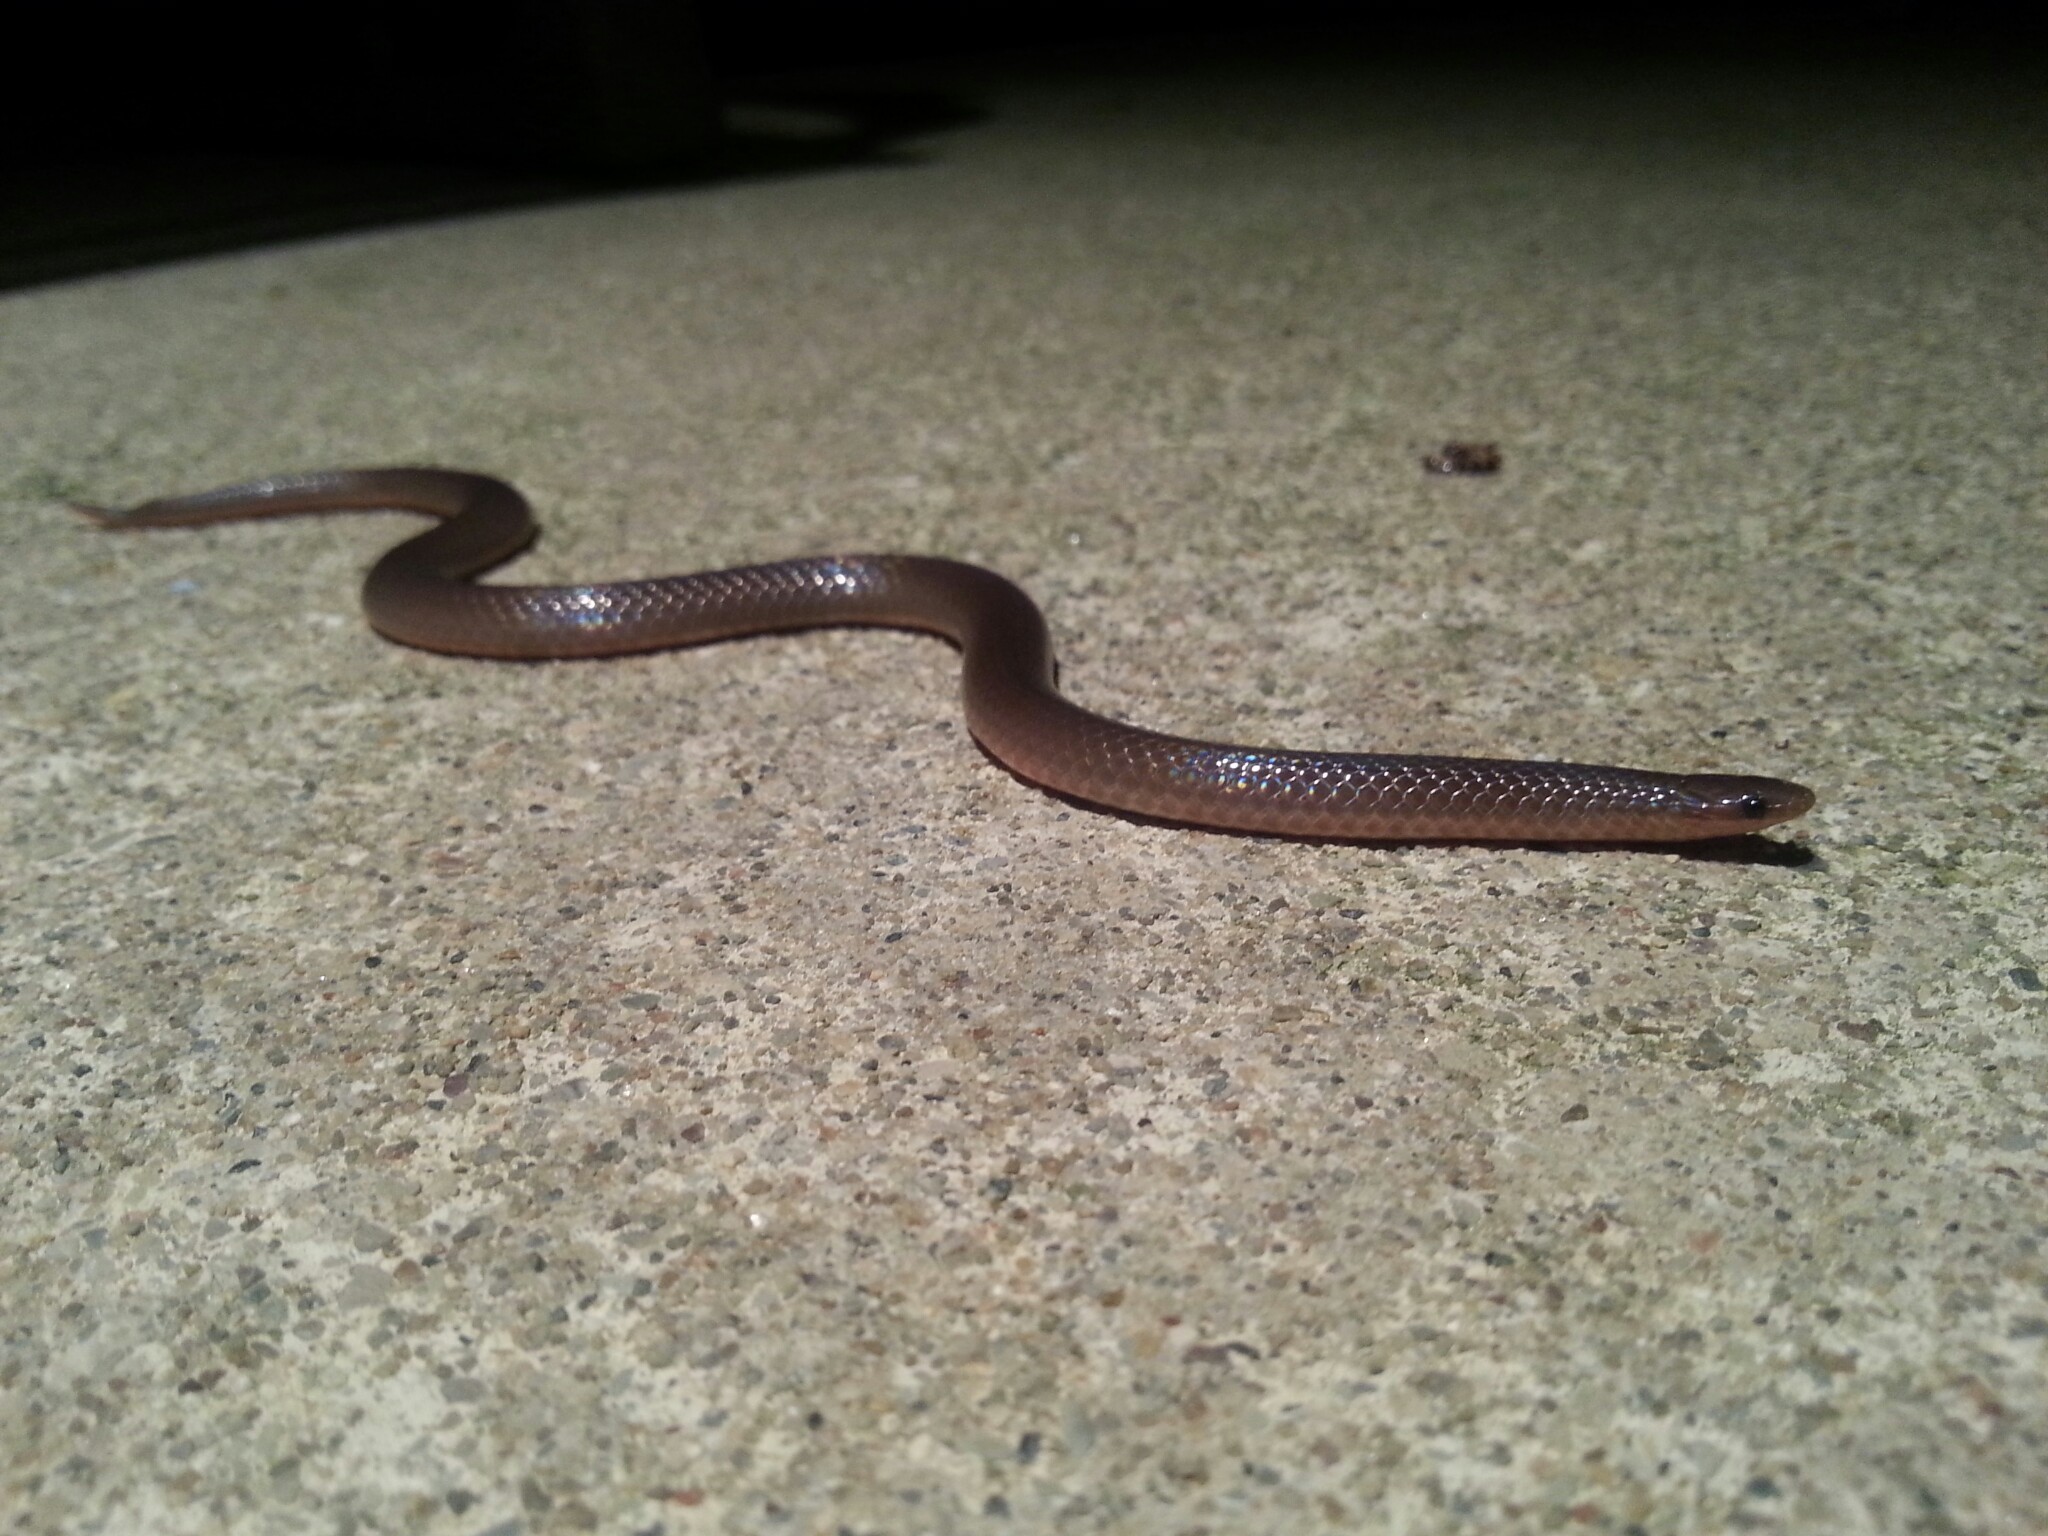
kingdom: Animalia
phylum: Chordata
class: Squamata
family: Colubridae
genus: Carphophis
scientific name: Carphophis amoenus
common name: Eastern worm snake
